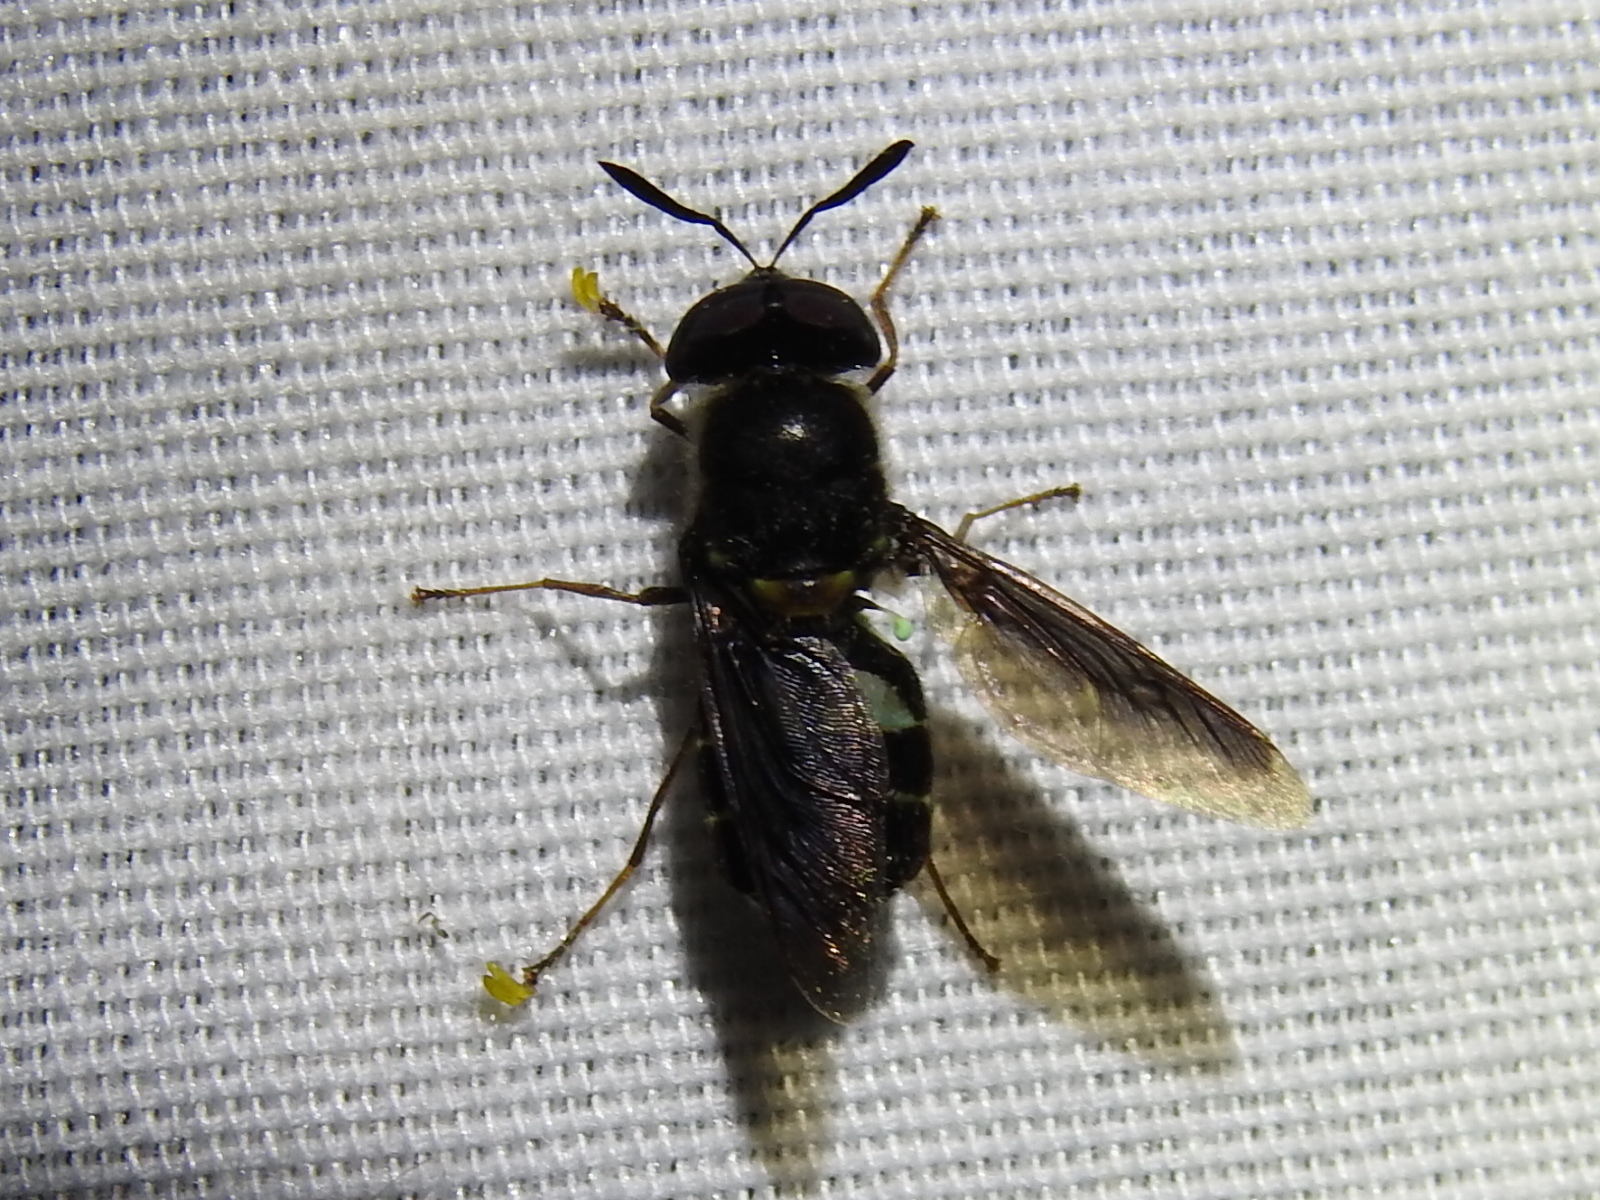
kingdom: Animalia
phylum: Arthropoda
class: Insecta
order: Diptera
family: Stratiomyidae
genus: Hoplitimyia
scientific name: Hoplitimyia subalba
